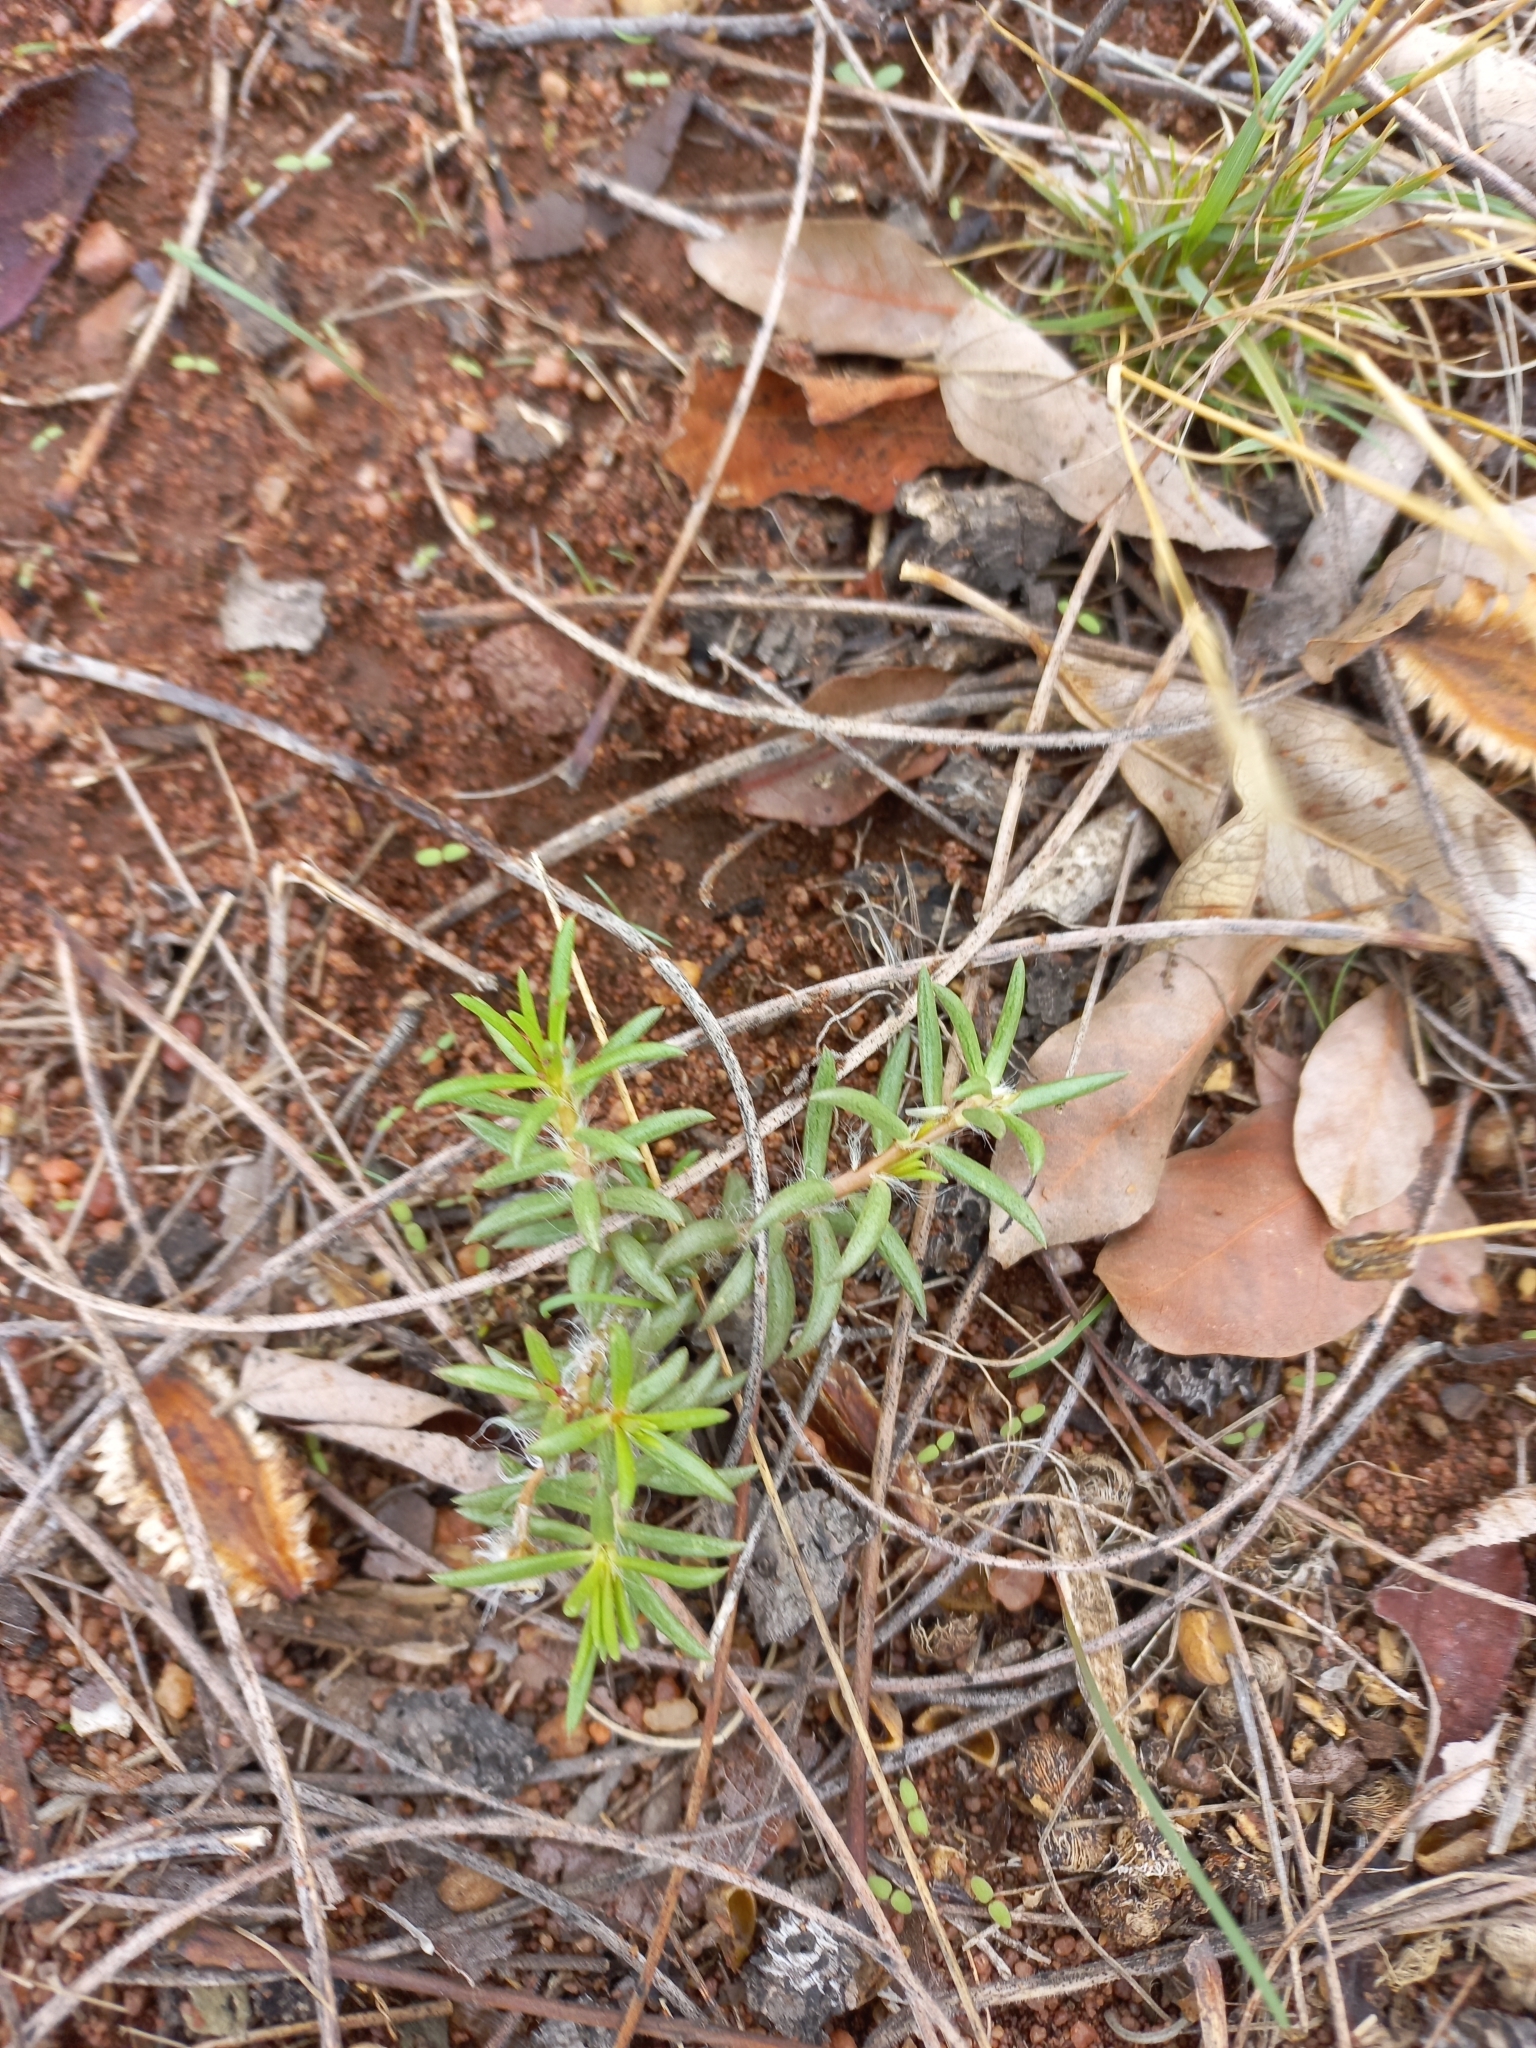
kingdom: Plantae
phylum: Tracheophyta
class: Magnoliopsida
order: Caryophyllales
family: Portulacaceae
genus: Portulaca
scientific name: Portulaca kermesina
